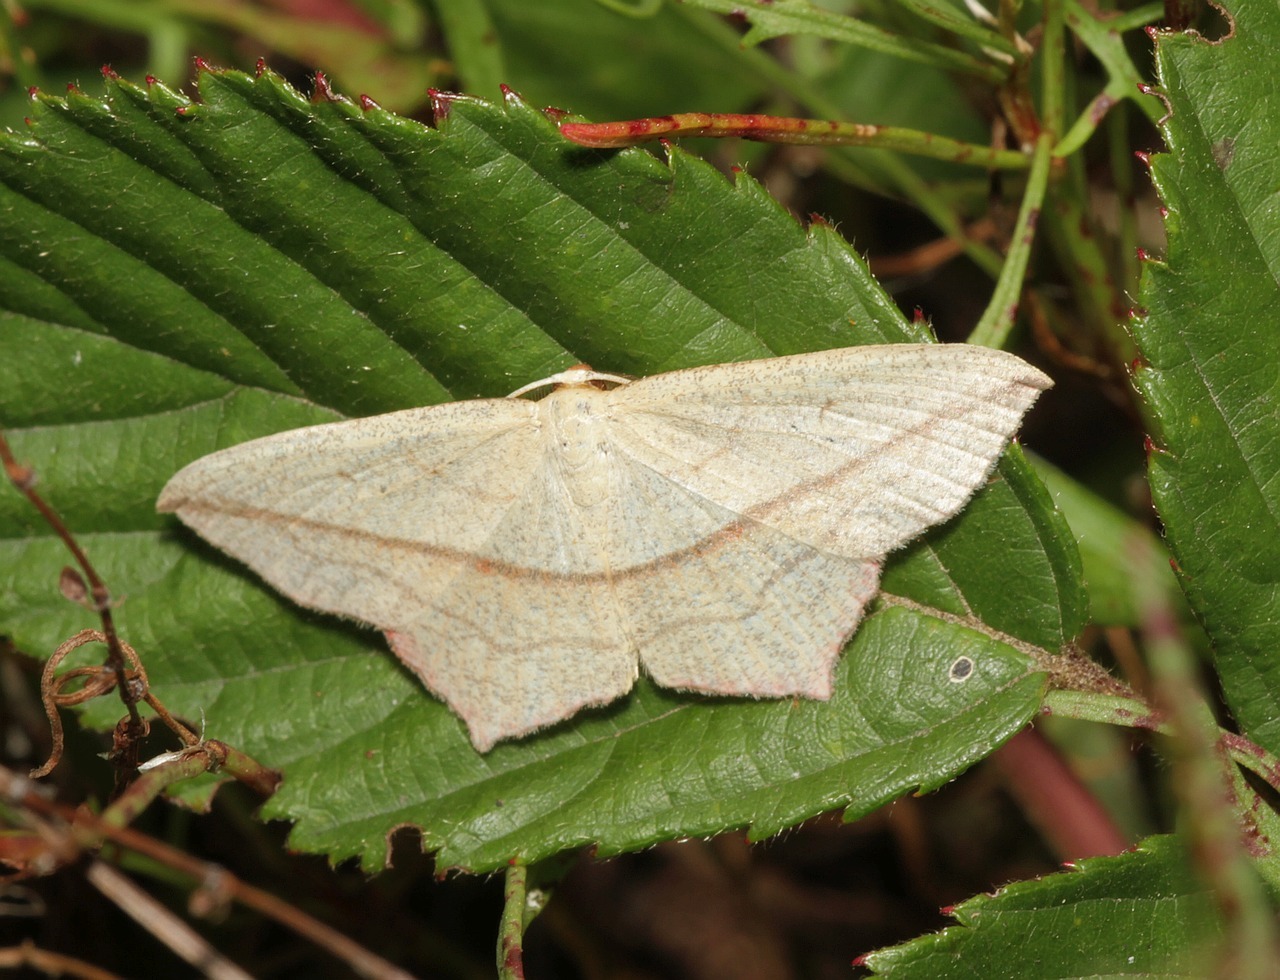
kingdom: Animalia
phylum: Arthropoda
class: Insecta
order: Lepidoptera
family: Geometridae
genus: Timandra
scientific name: Timandra comae
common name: Blood-vein
